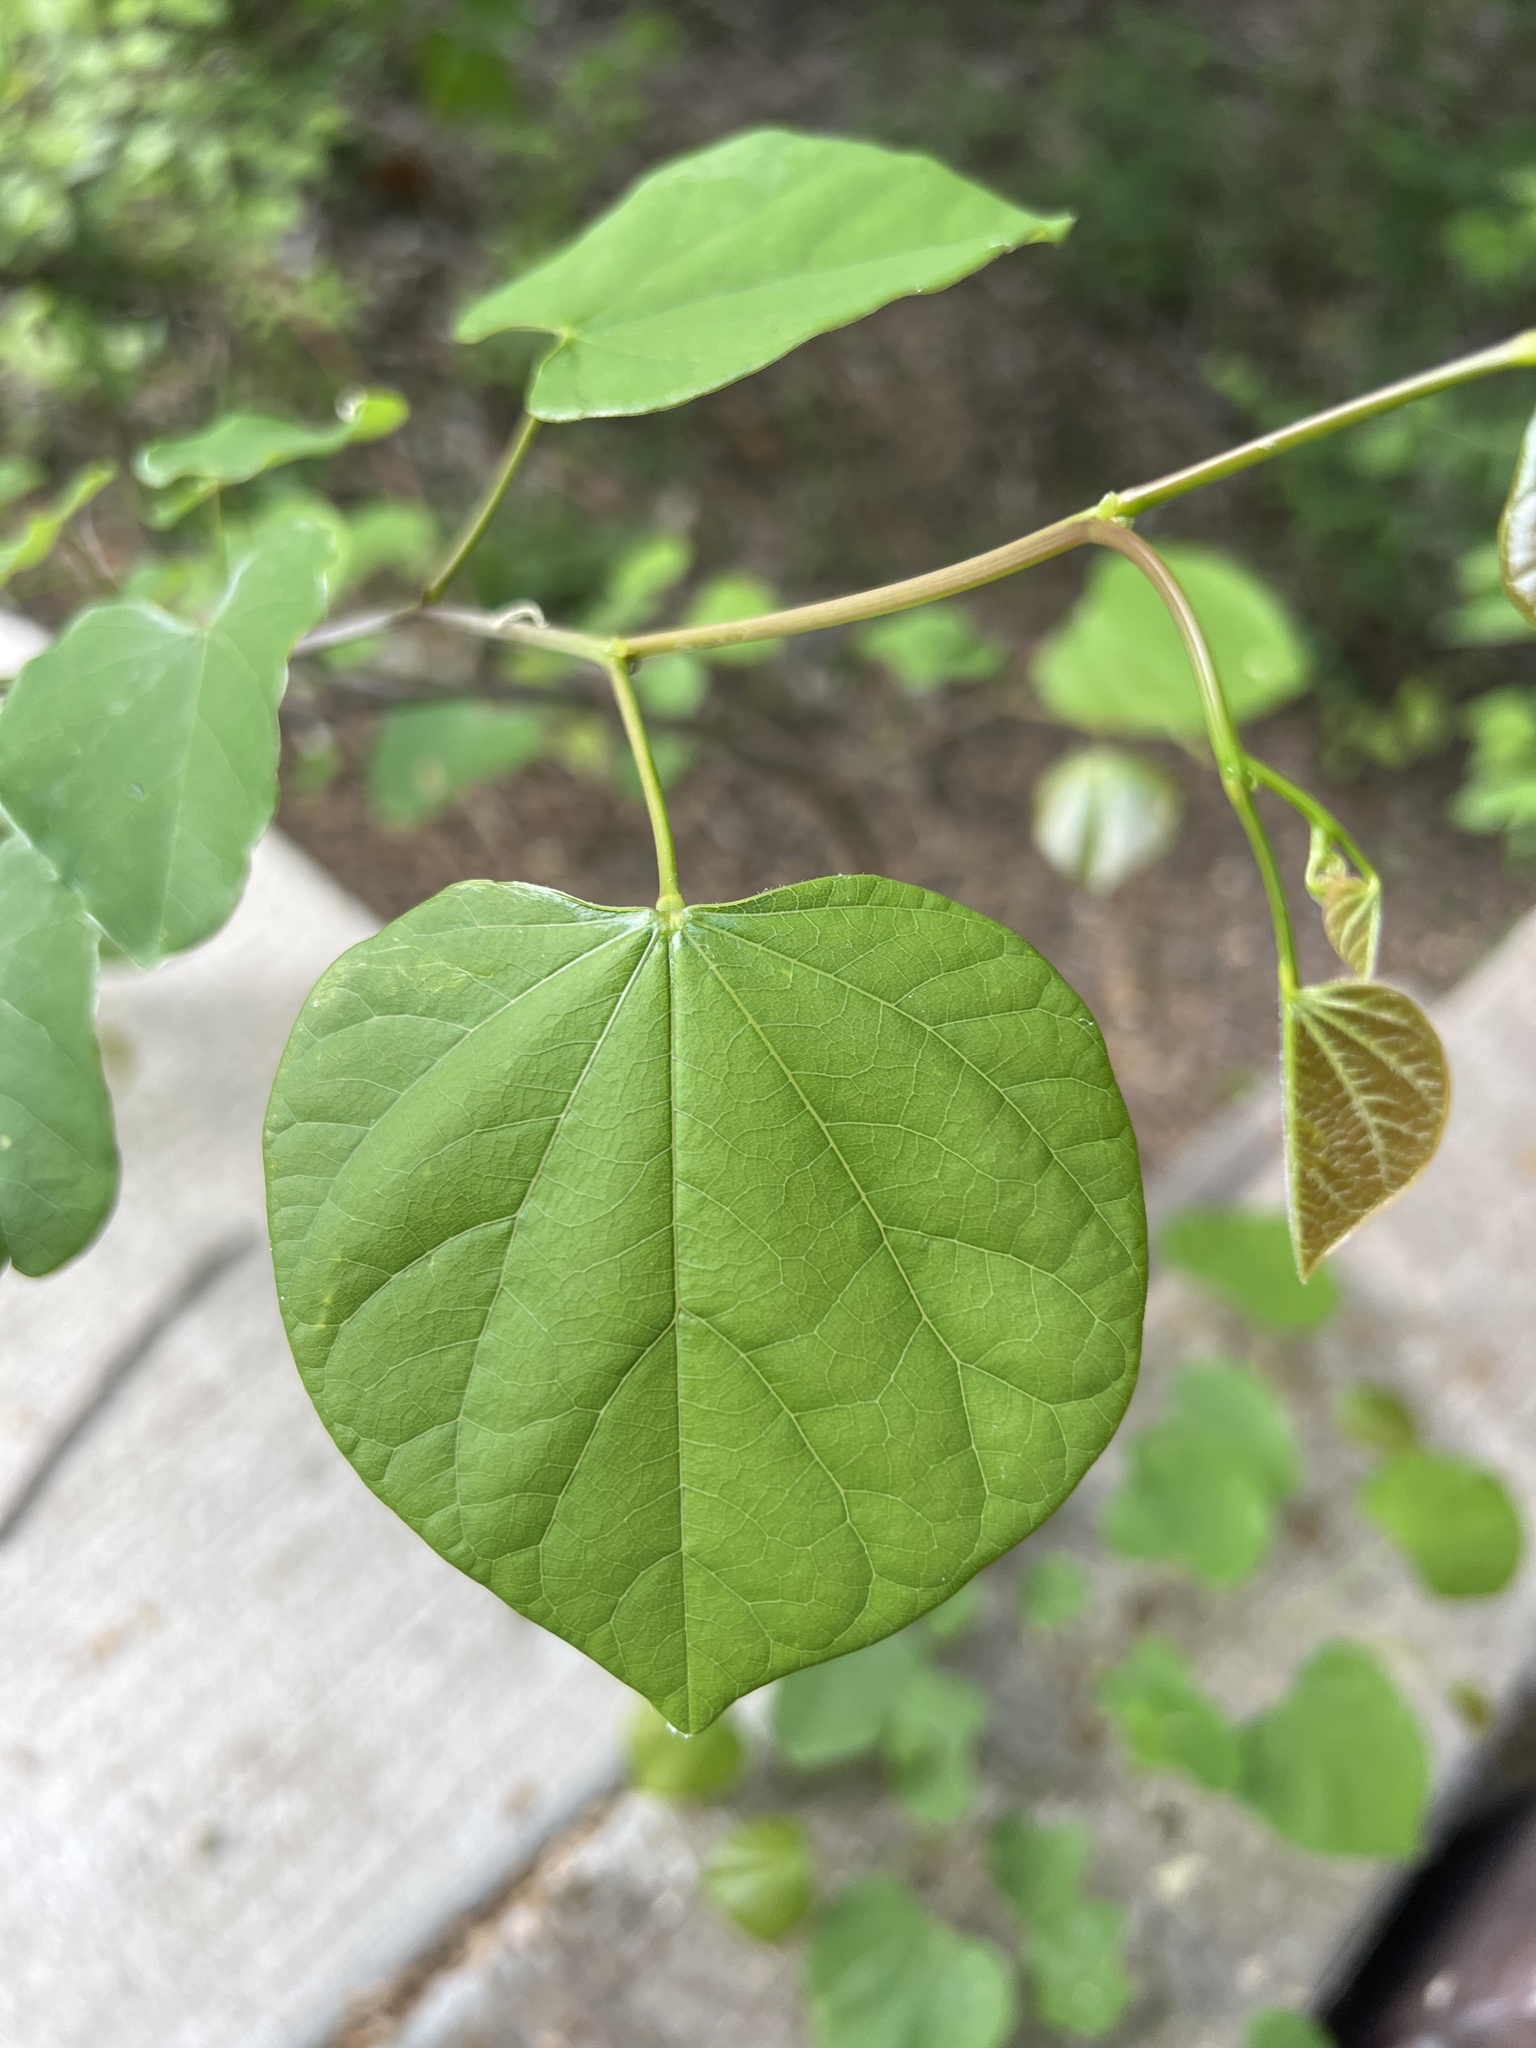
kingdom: Plantae
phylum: Tracheophyta
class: Magnoliopsida
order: Fabales
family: Fabaceae
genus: Cercis
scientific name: Cercis canadensis
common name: Eastern redbud
